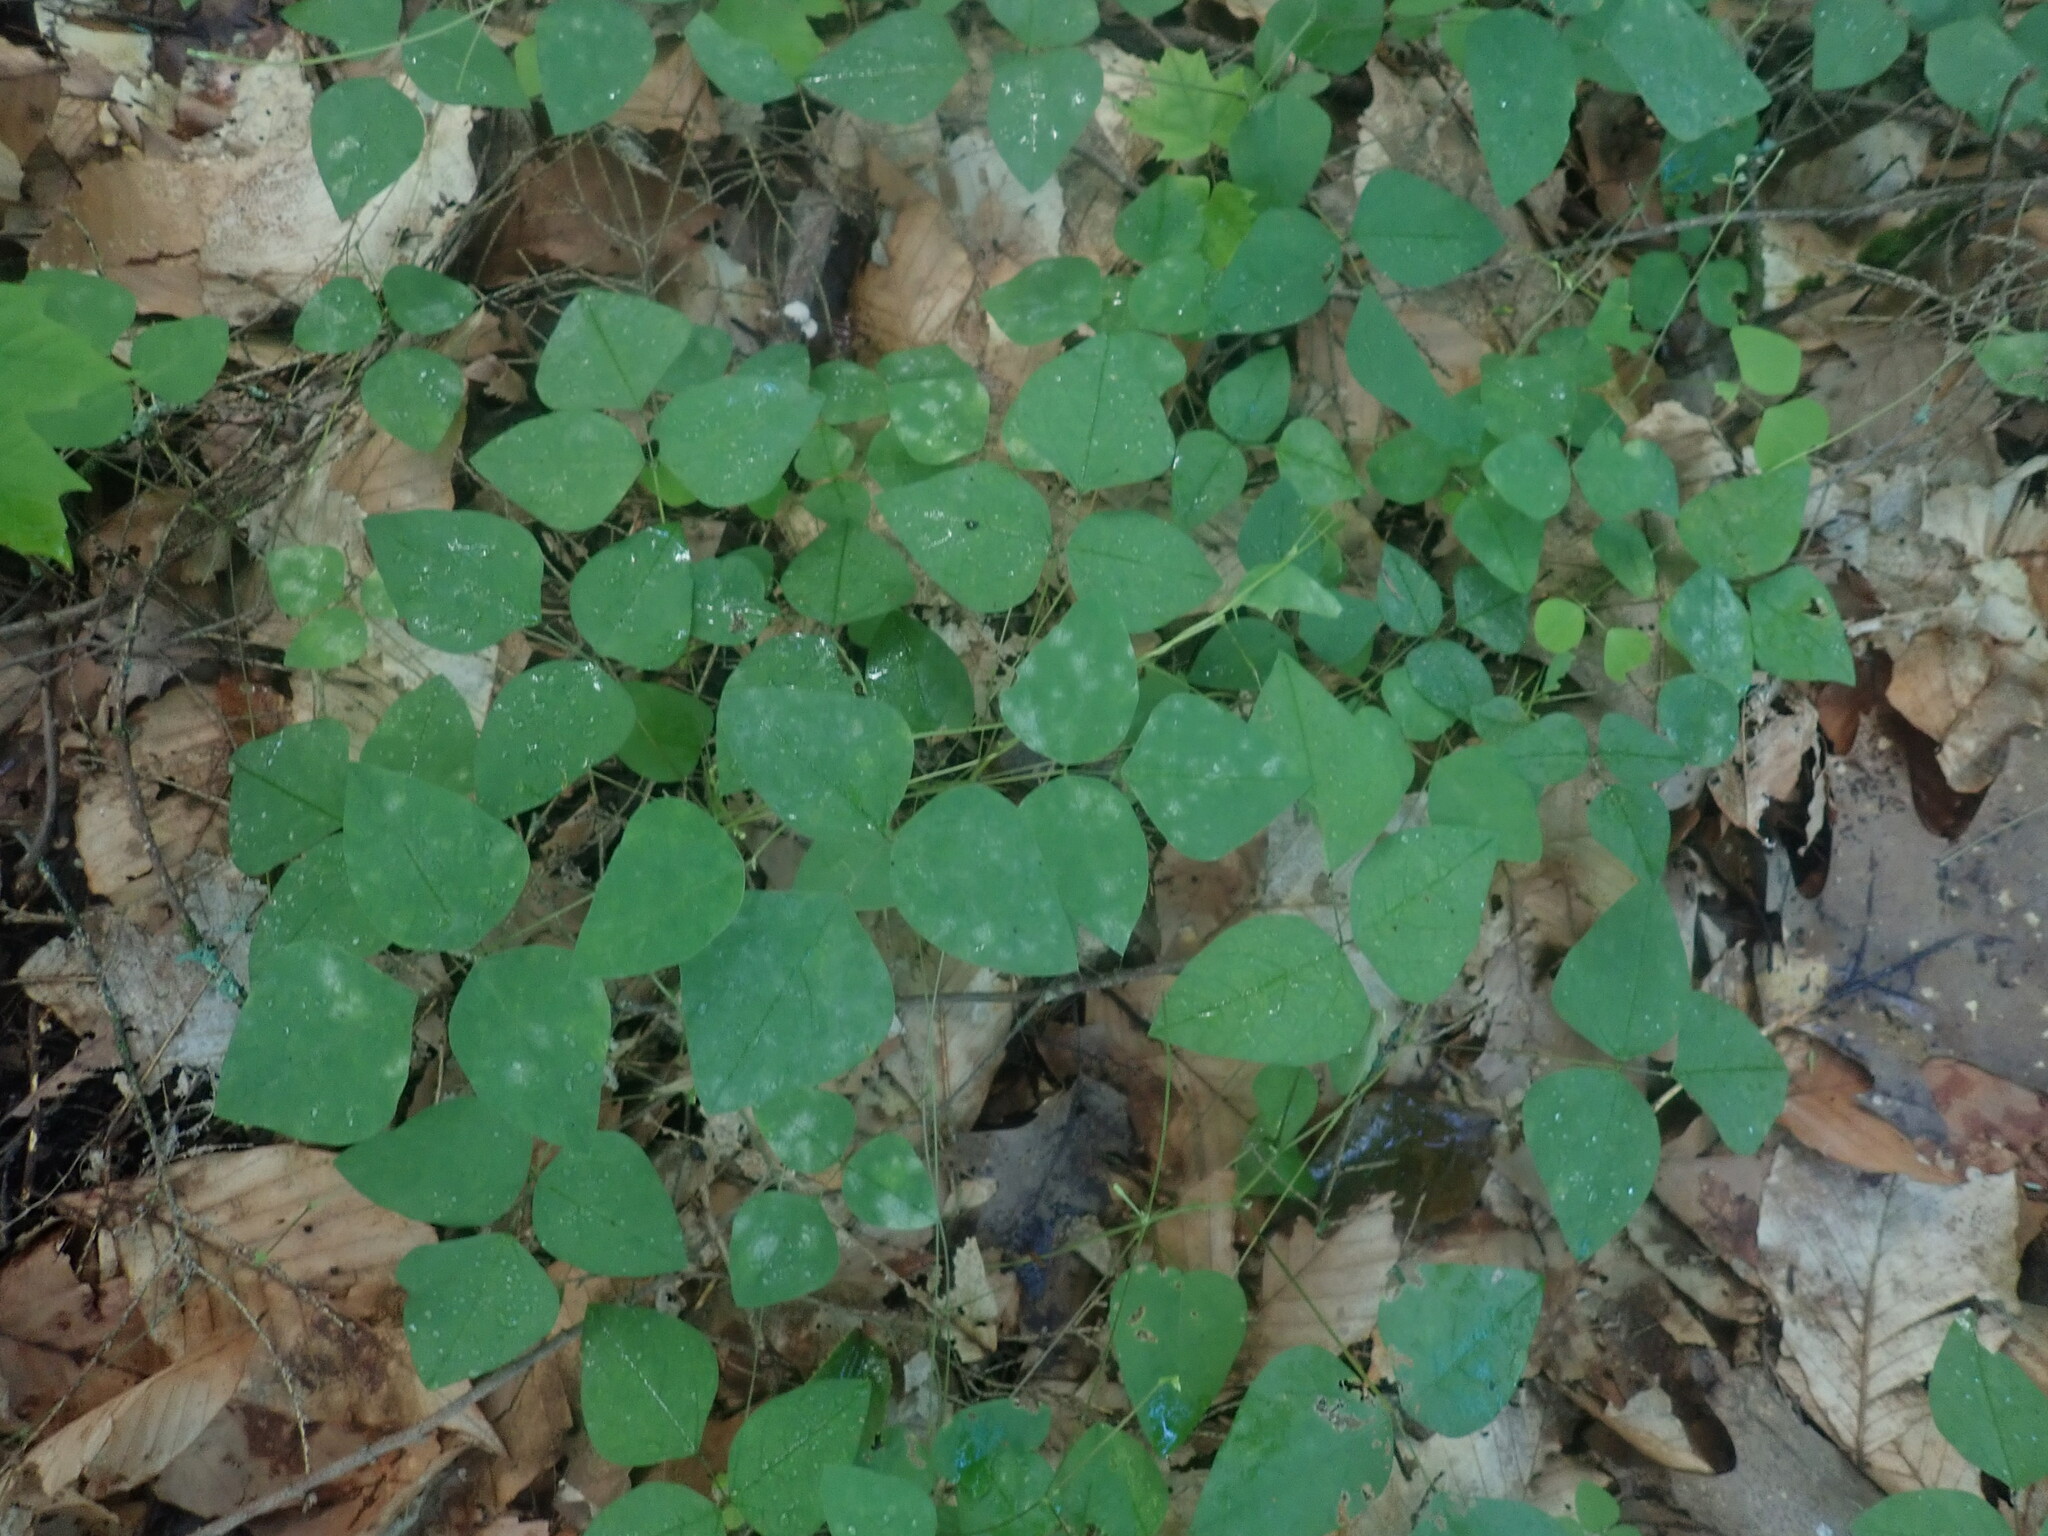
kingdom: Plantae
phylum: Tracheophyta
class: Magnoliopsida
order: Fabales
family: Fabaceae
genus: Amphicarpaea
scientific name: Amphicarpaea bracteata
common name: American hog peanut
